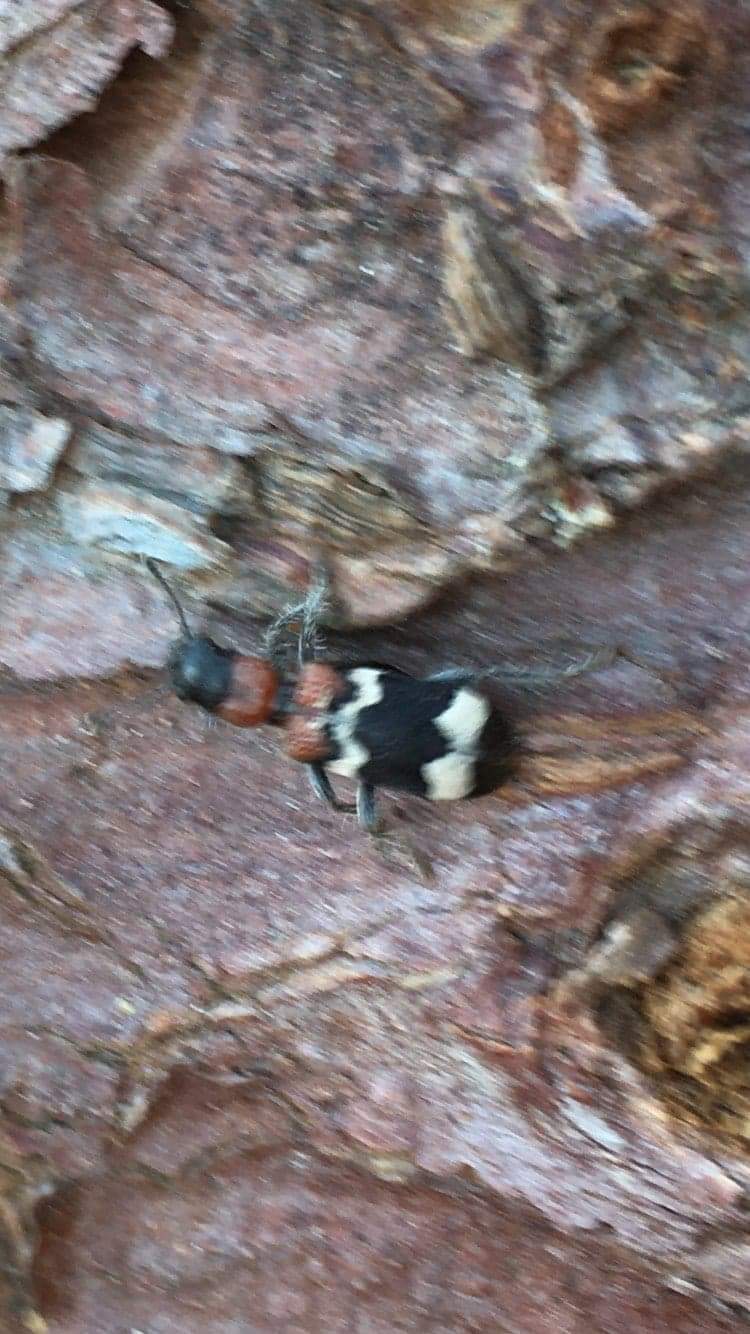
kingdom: Animalia
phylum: Arthropoda
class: Insecta
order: Coleoptera
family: Cleridae
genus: Thanasimus
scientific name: Thanasimus formicarius
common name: Ant beetle
